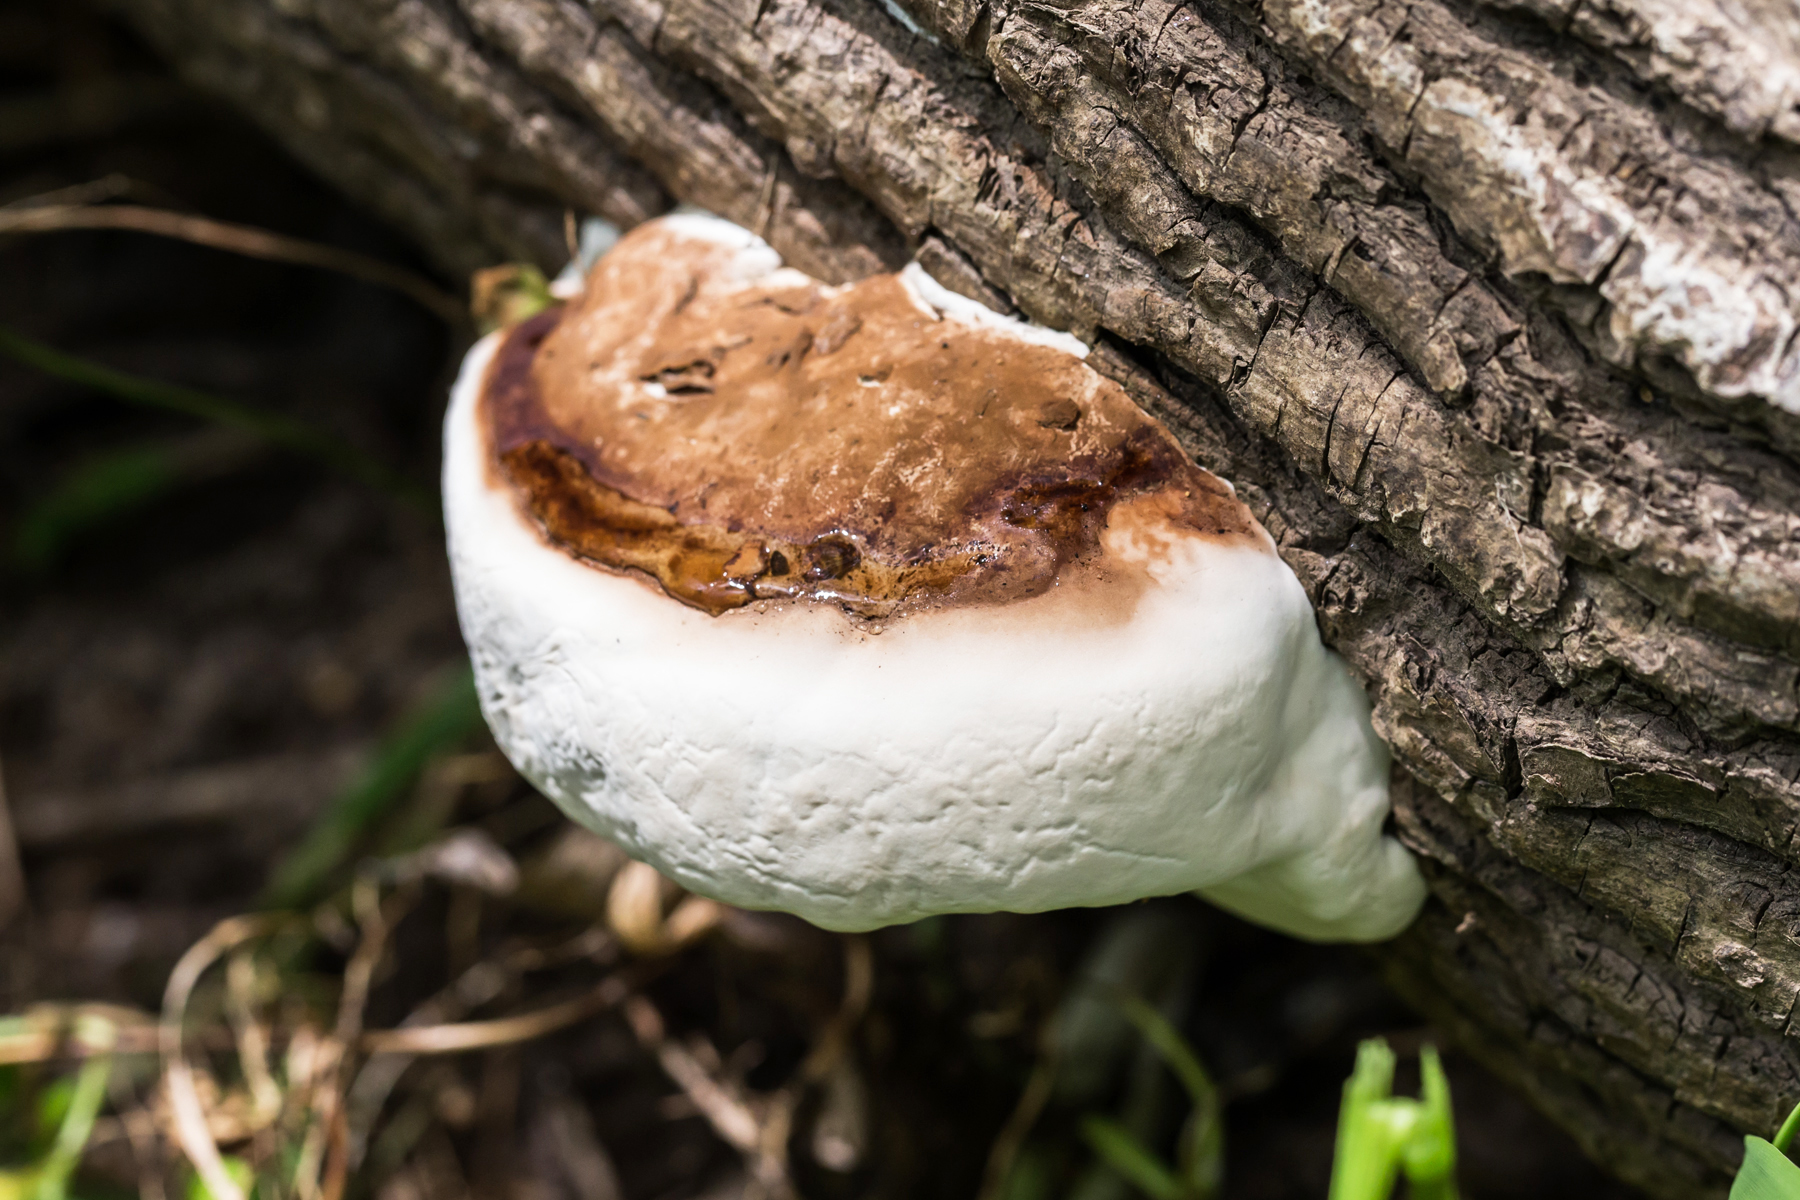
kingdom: Fungi
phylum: Basidiomycota
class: Agaricomycetes
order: Polyporales
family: Fomitopsidaceae
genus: Fomitopsis
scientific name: Fomitopsis ochracea
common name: American brown fomitopsis
